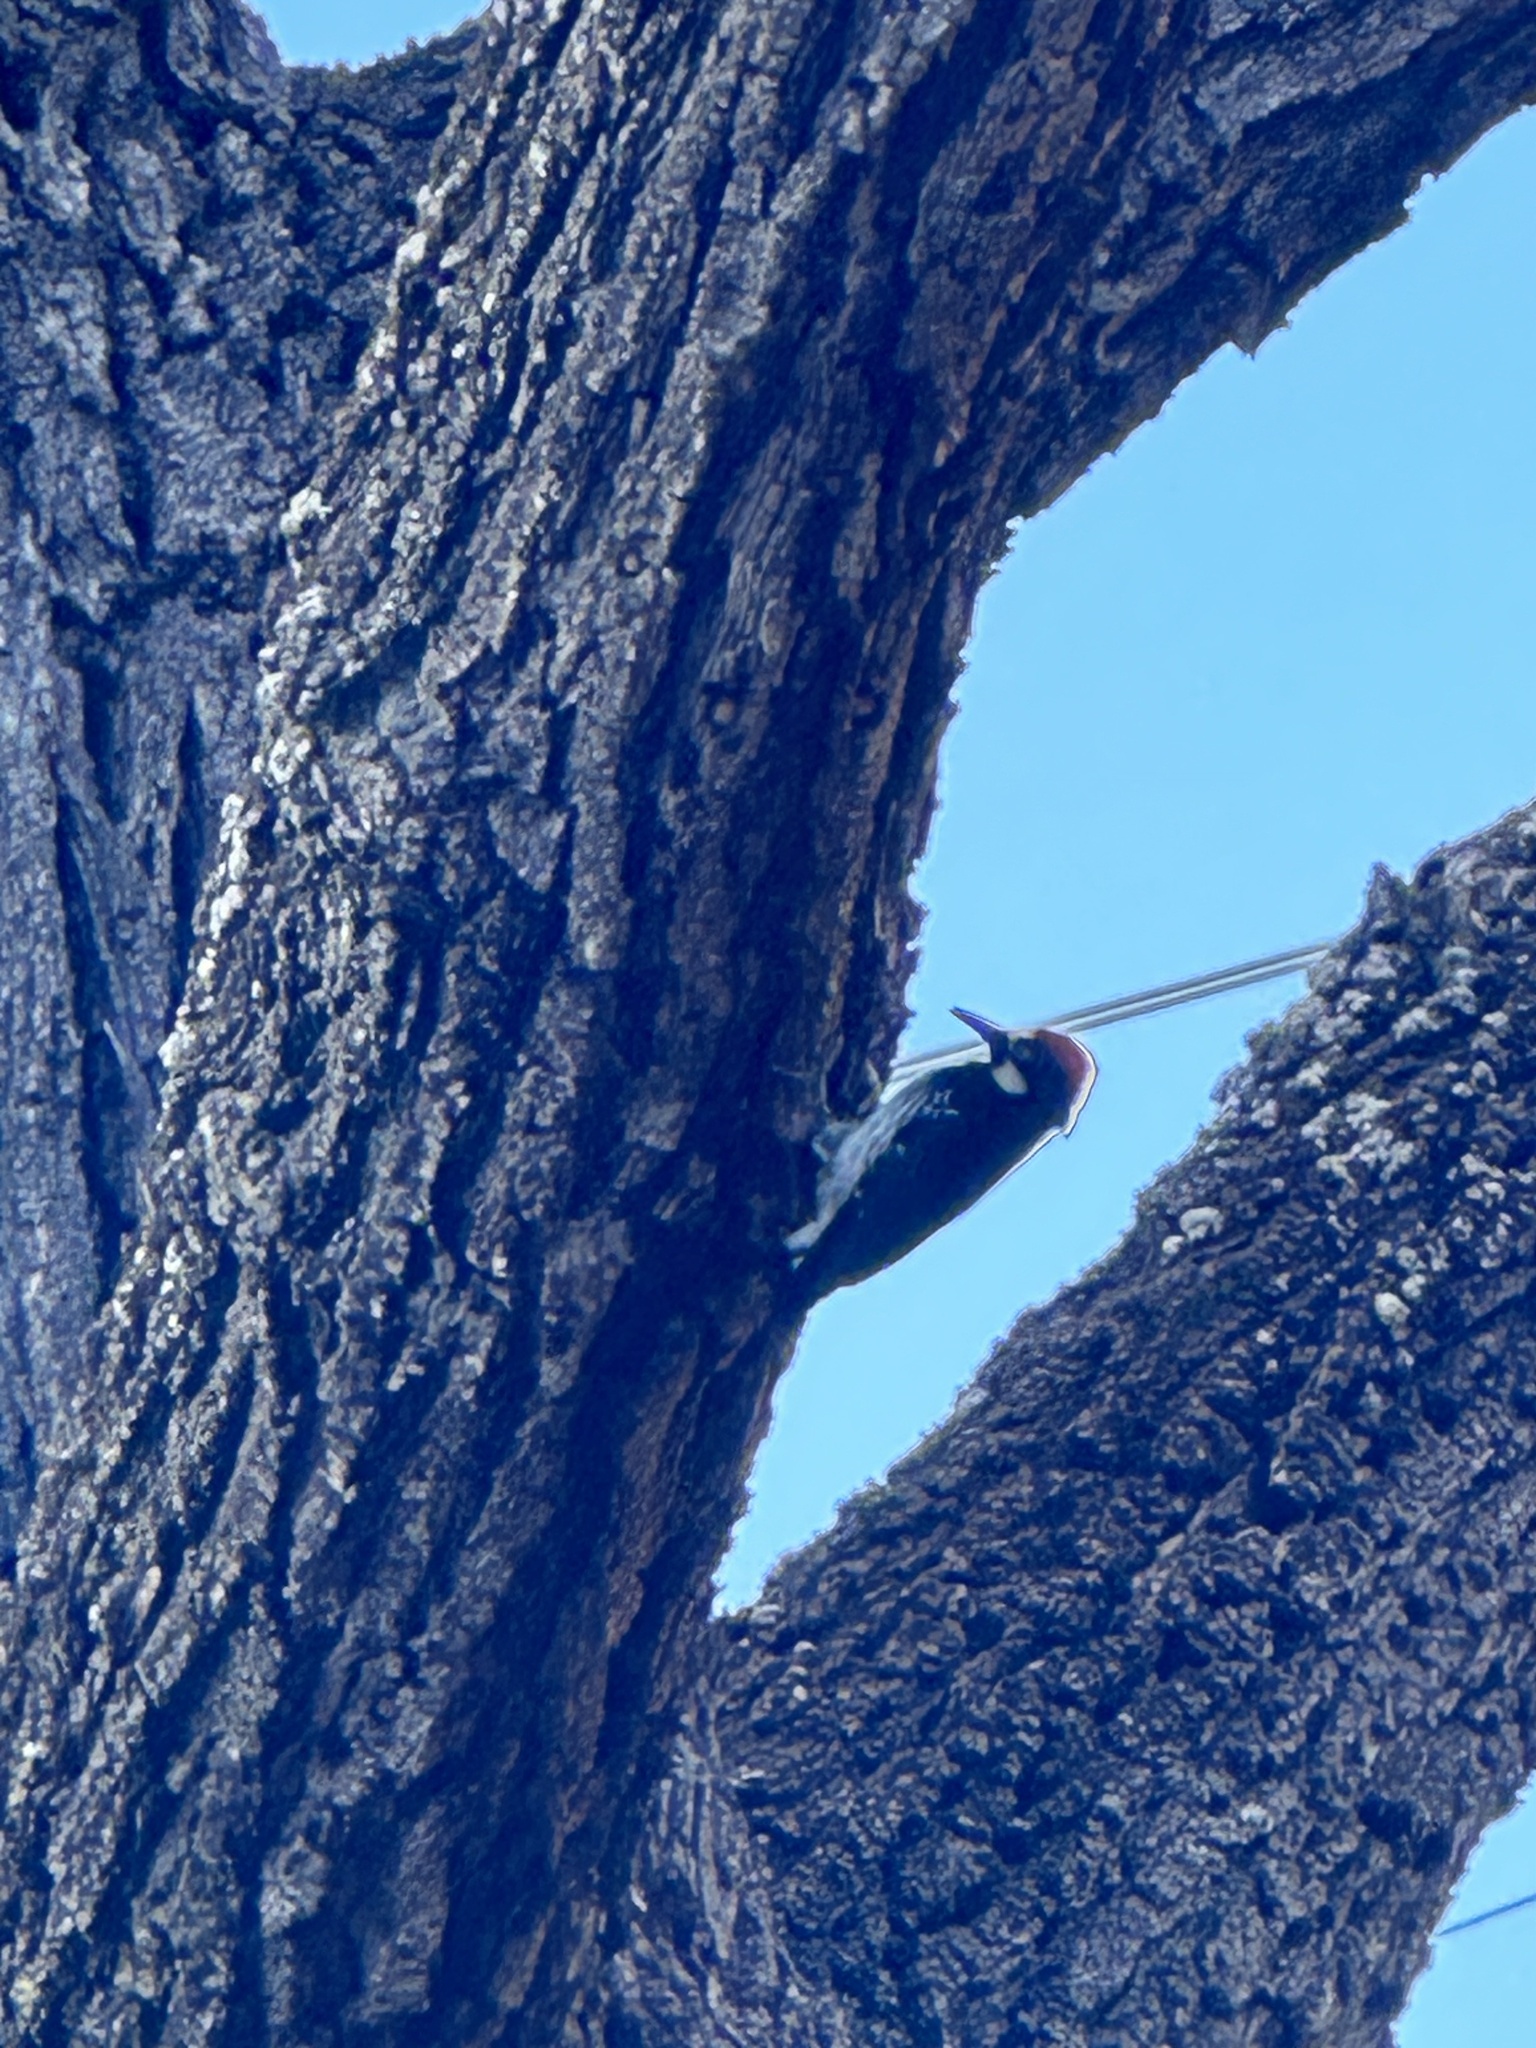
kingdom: Animalia
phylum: Chordata
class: Aves
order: Piciformes
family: Picidae
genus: Melanerpes
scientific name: Melanerpes formicivorus
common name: Acorn woodpecker
